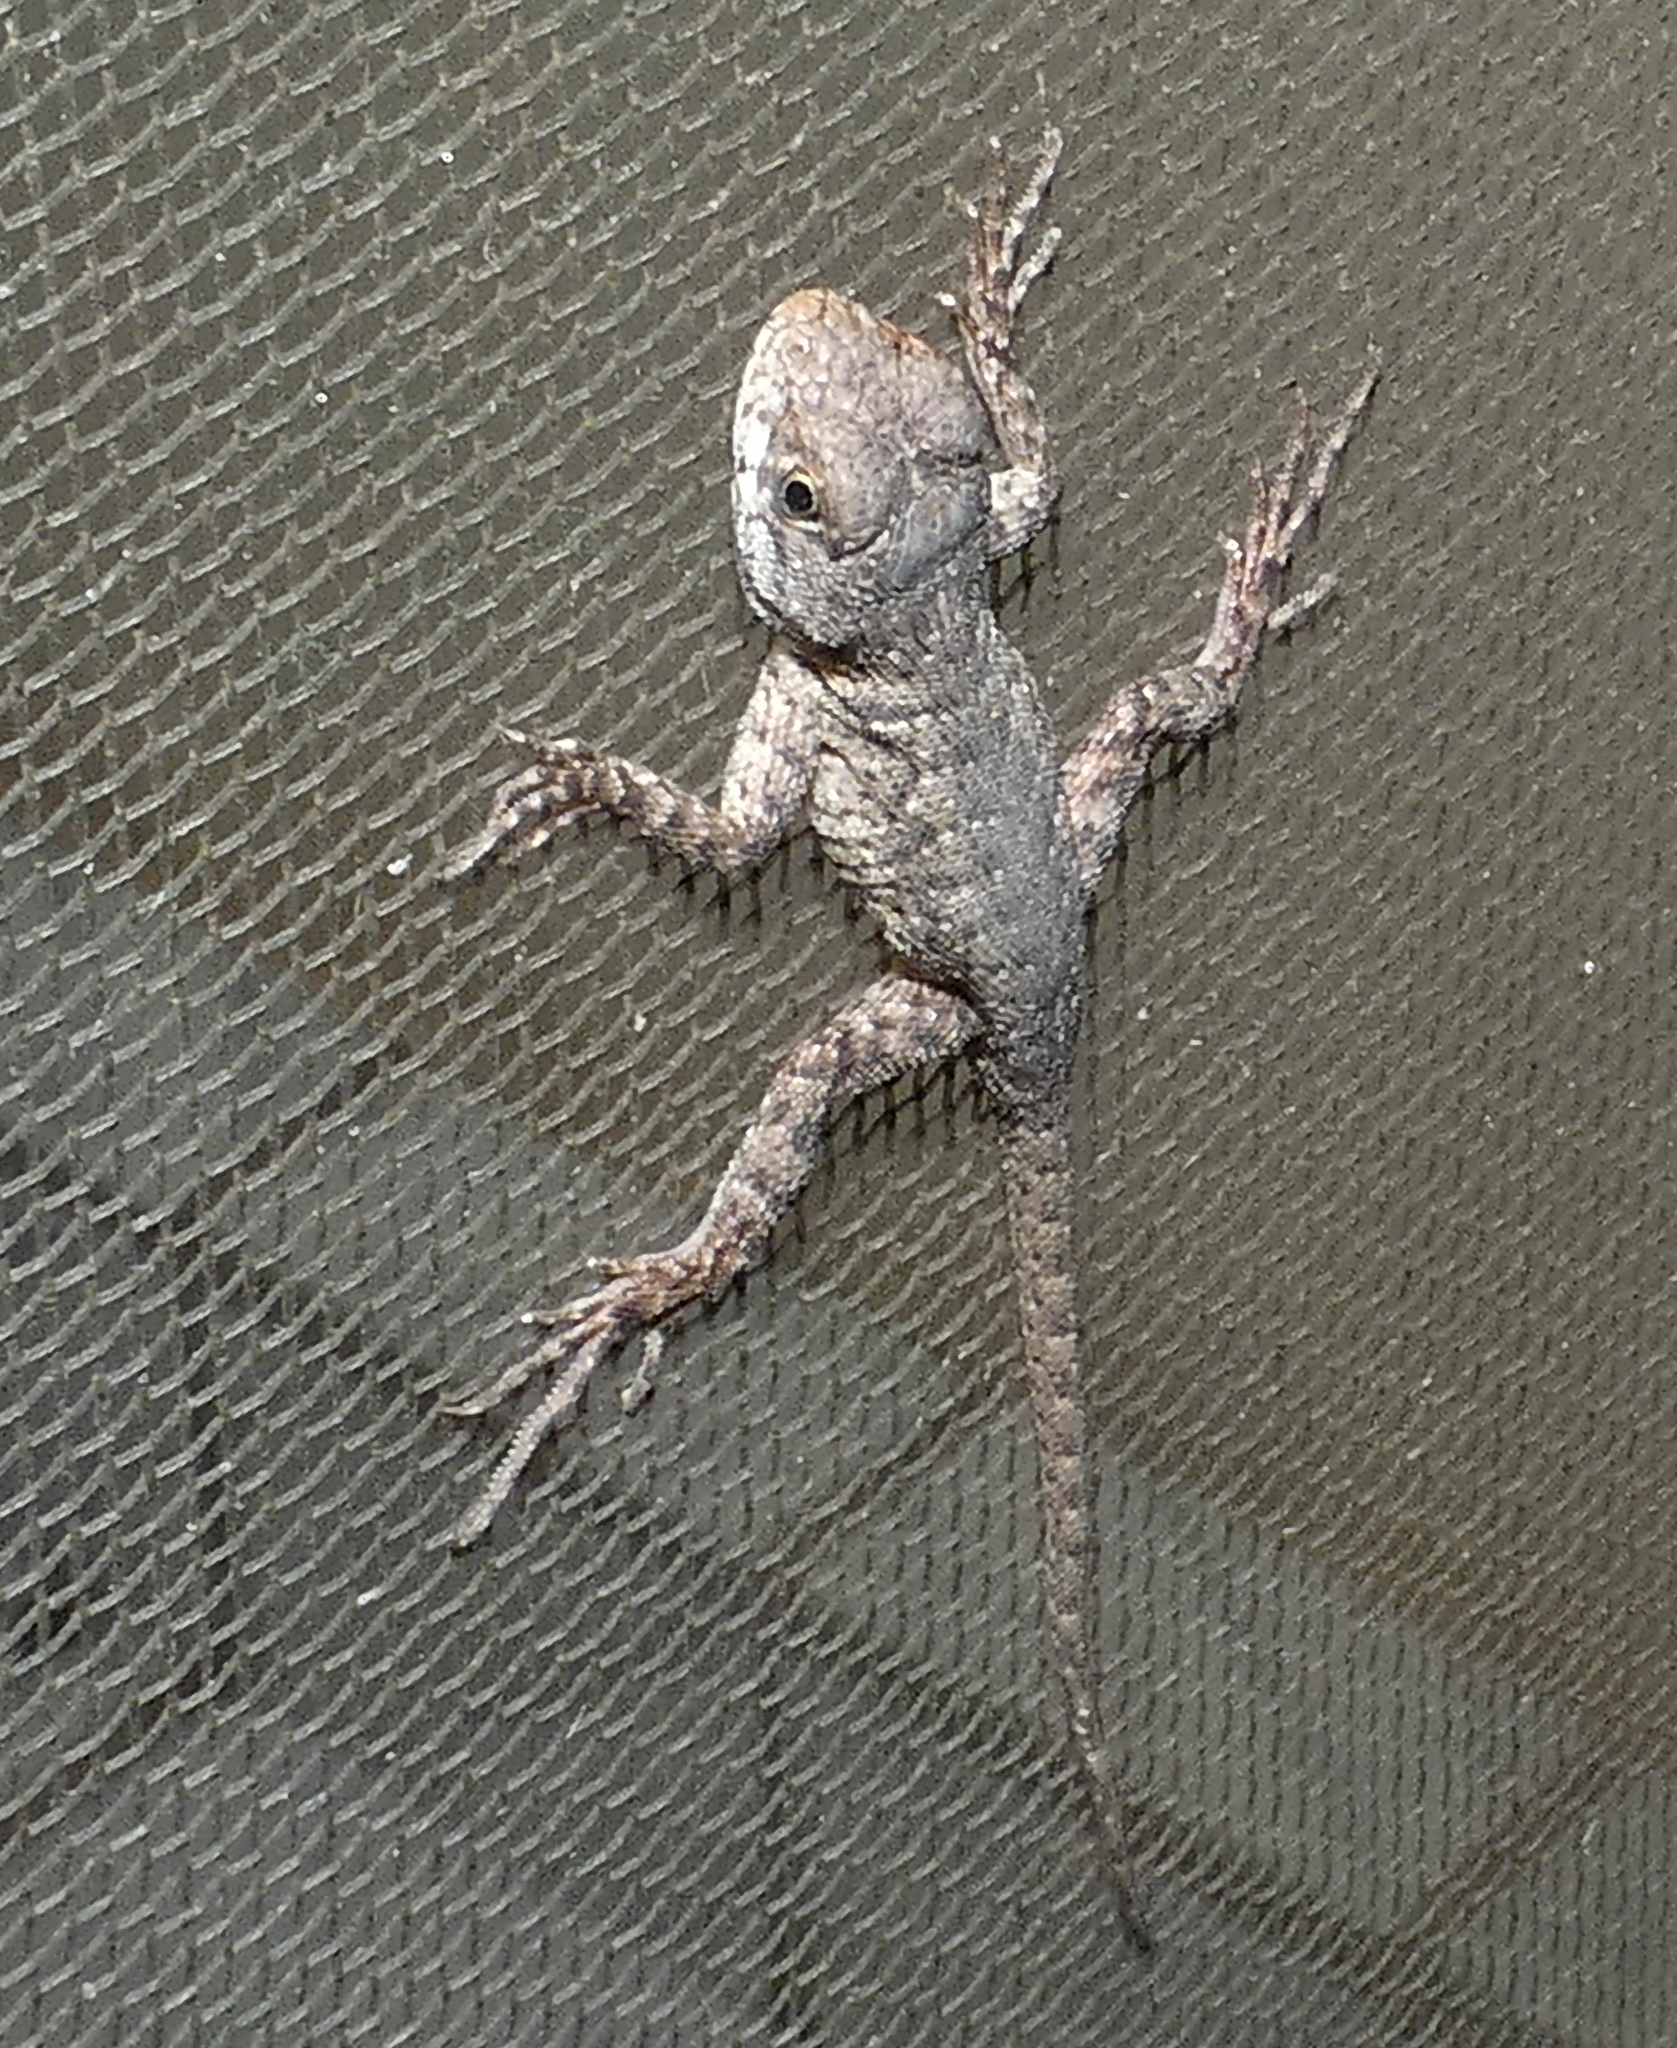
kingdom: Animalia
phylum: Chordata
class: Squamata
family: Tropiduridae
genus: Tropidurus
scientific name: Tropidurus hispidus
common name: Peters' lava lizard
